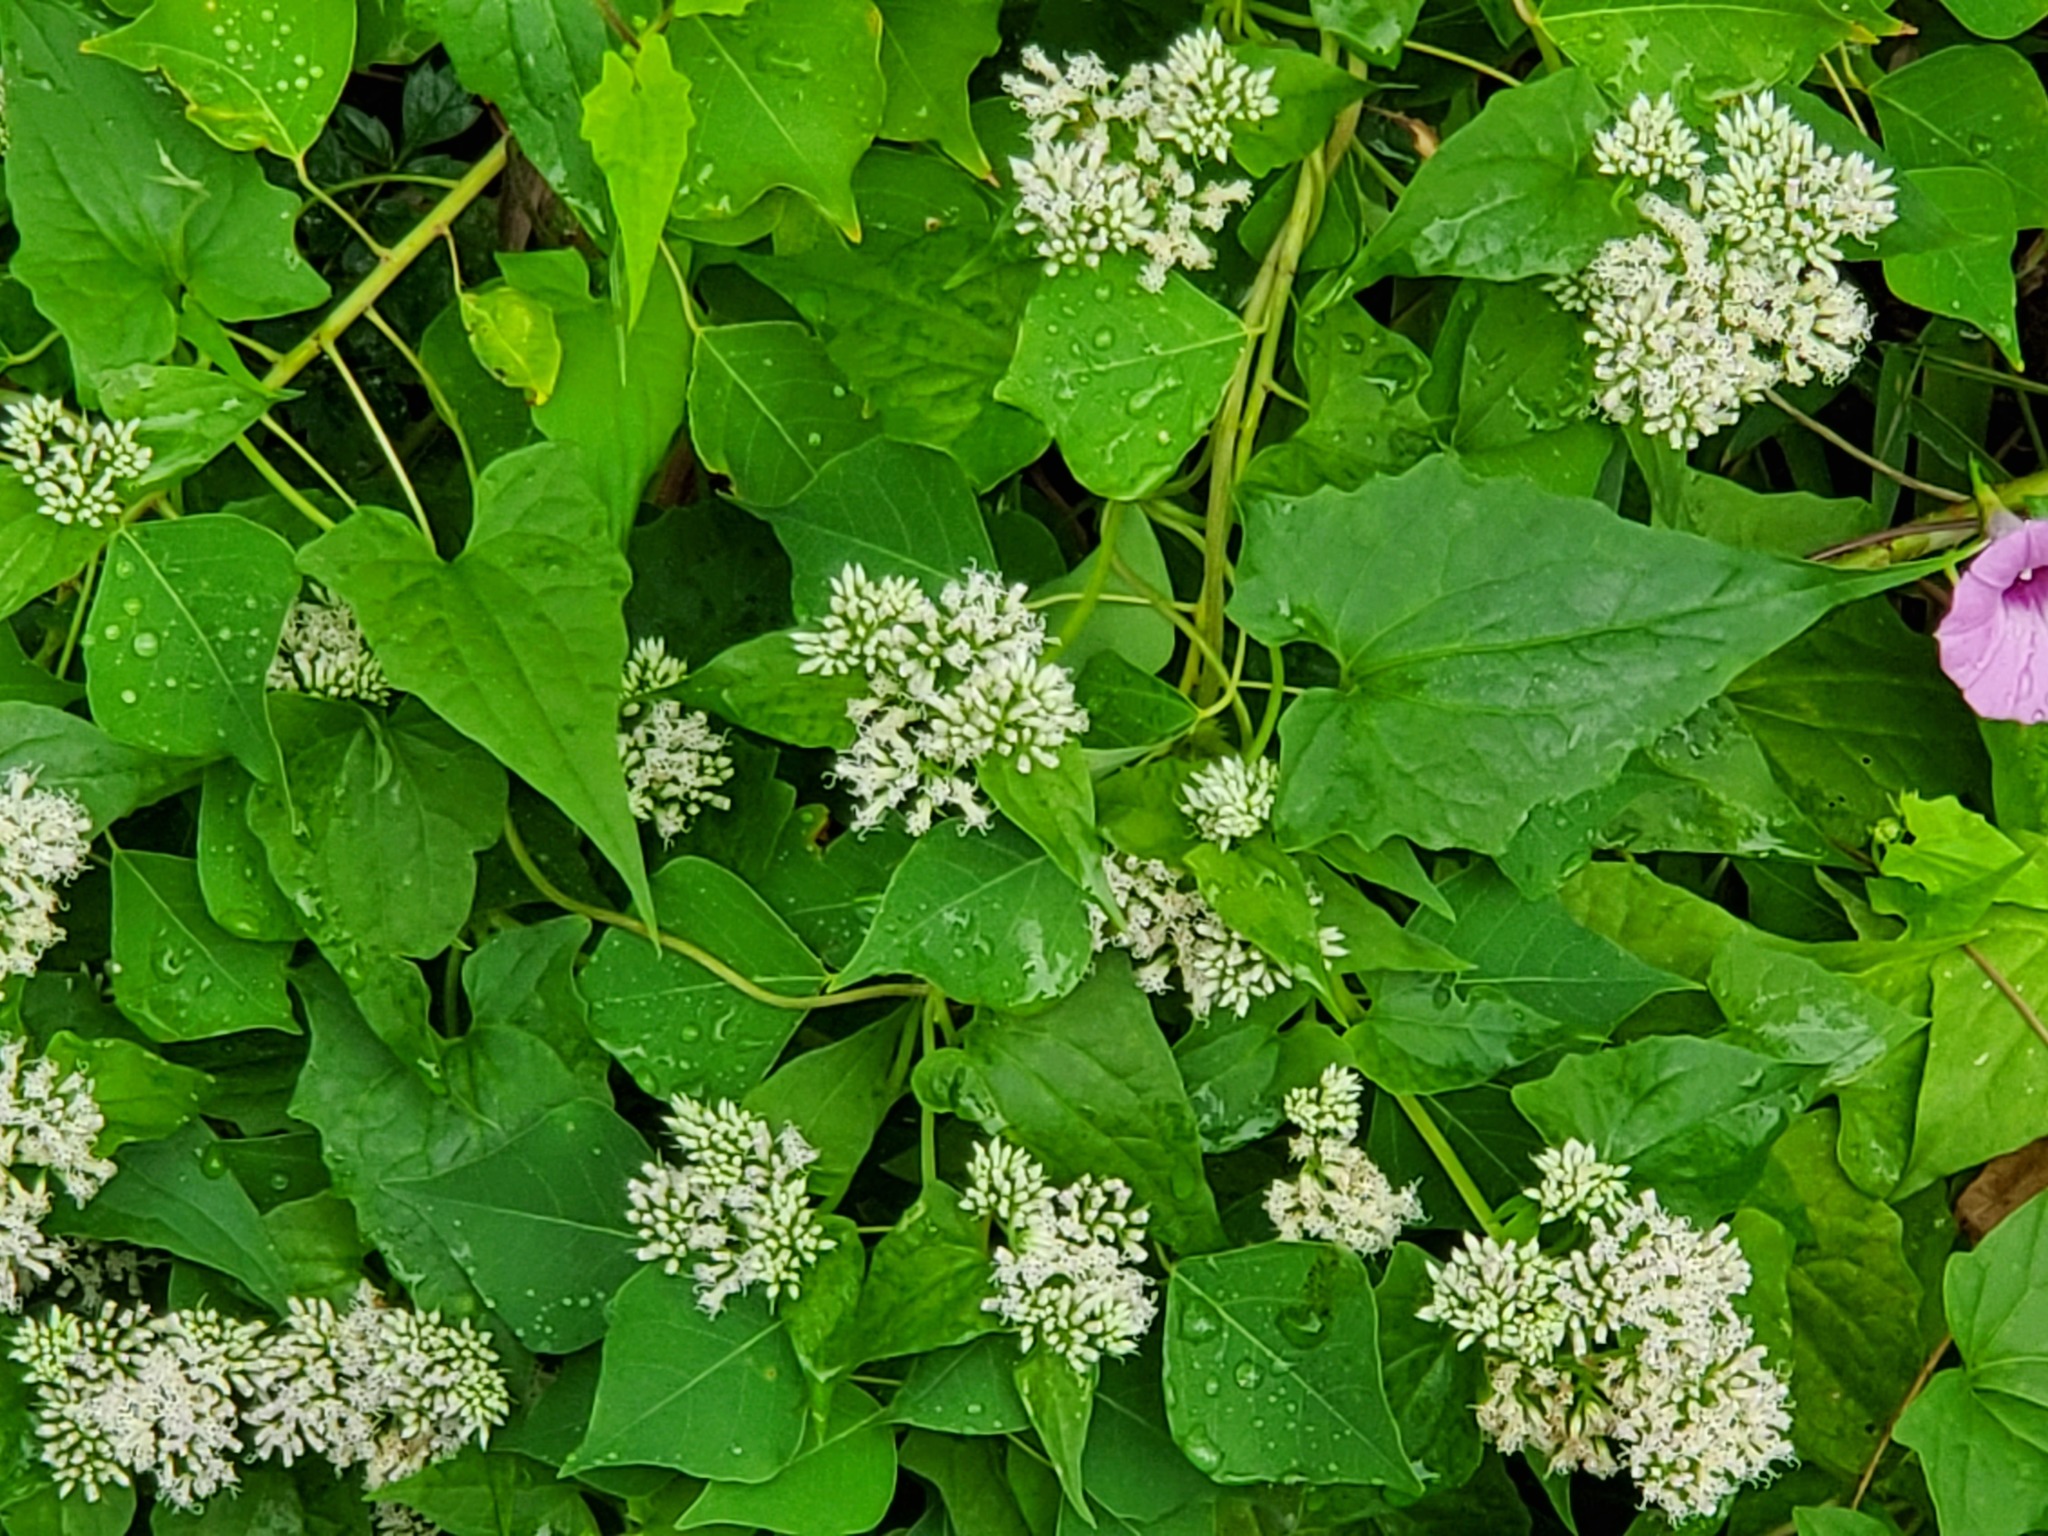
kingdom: Plantae
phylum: Tracheophyta
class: Magnoliopsida
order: Asterales
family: Asteraceae
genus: Mikania
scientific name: Mikania scandens
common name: Climbing hempvine
